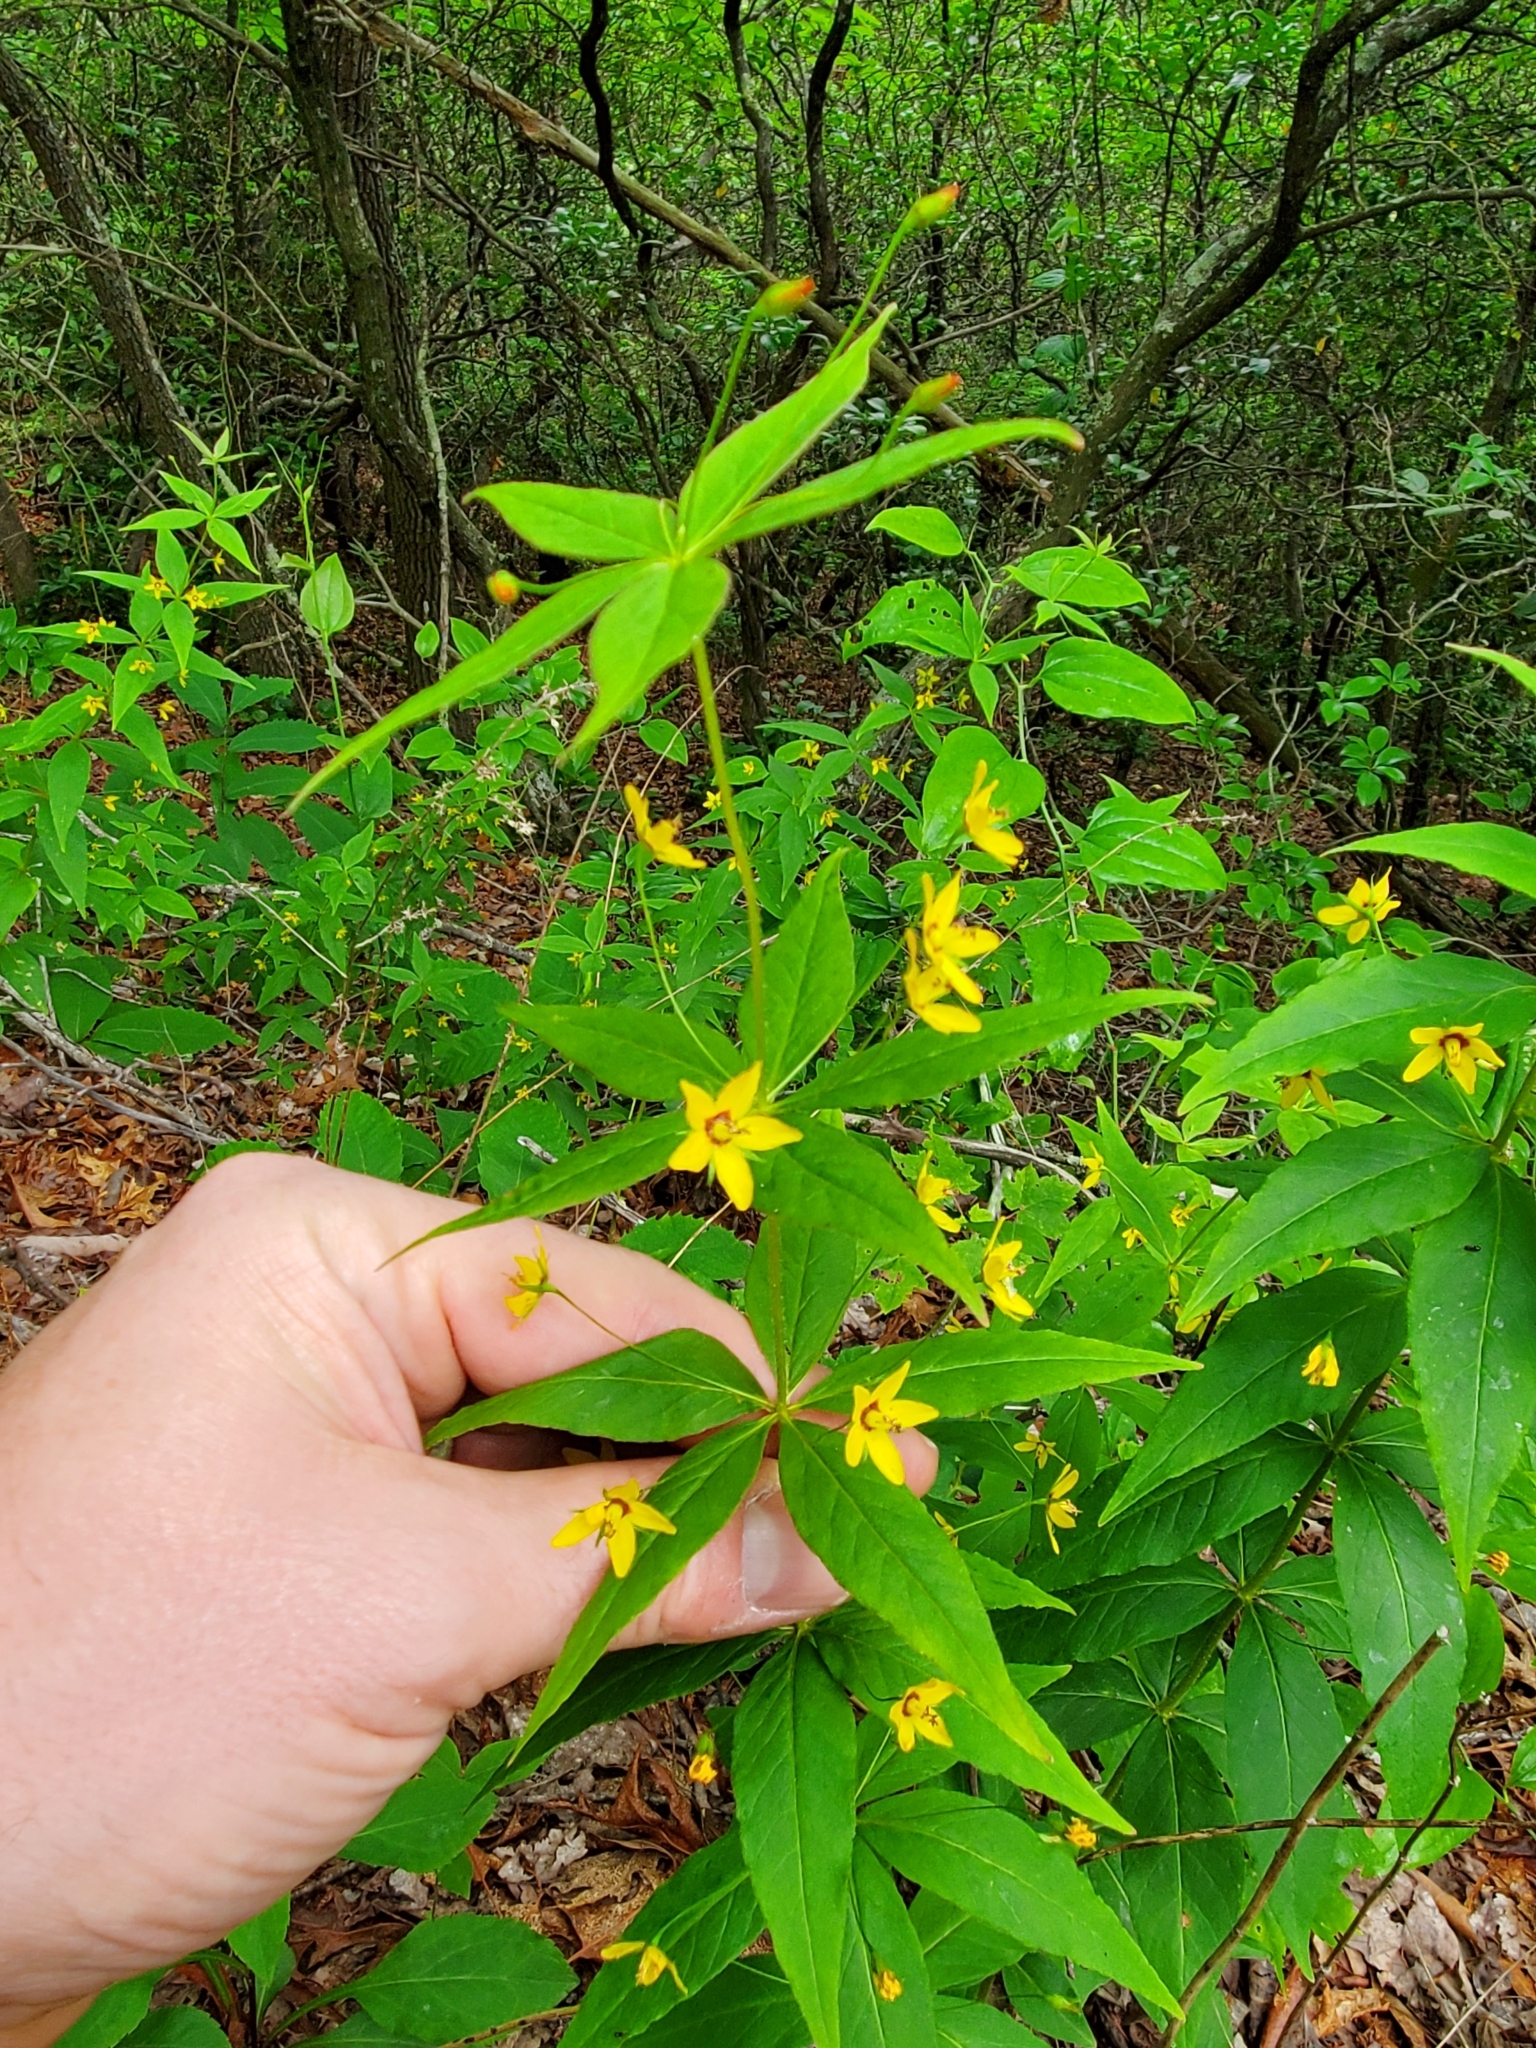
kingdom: Plantae
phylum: Tracheophyta
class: Magnoliopsida
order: Ericales
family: Primulaceae
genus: Lysimachia
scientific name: Lysimachia quadrifolia
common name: Whorled loosestrife
